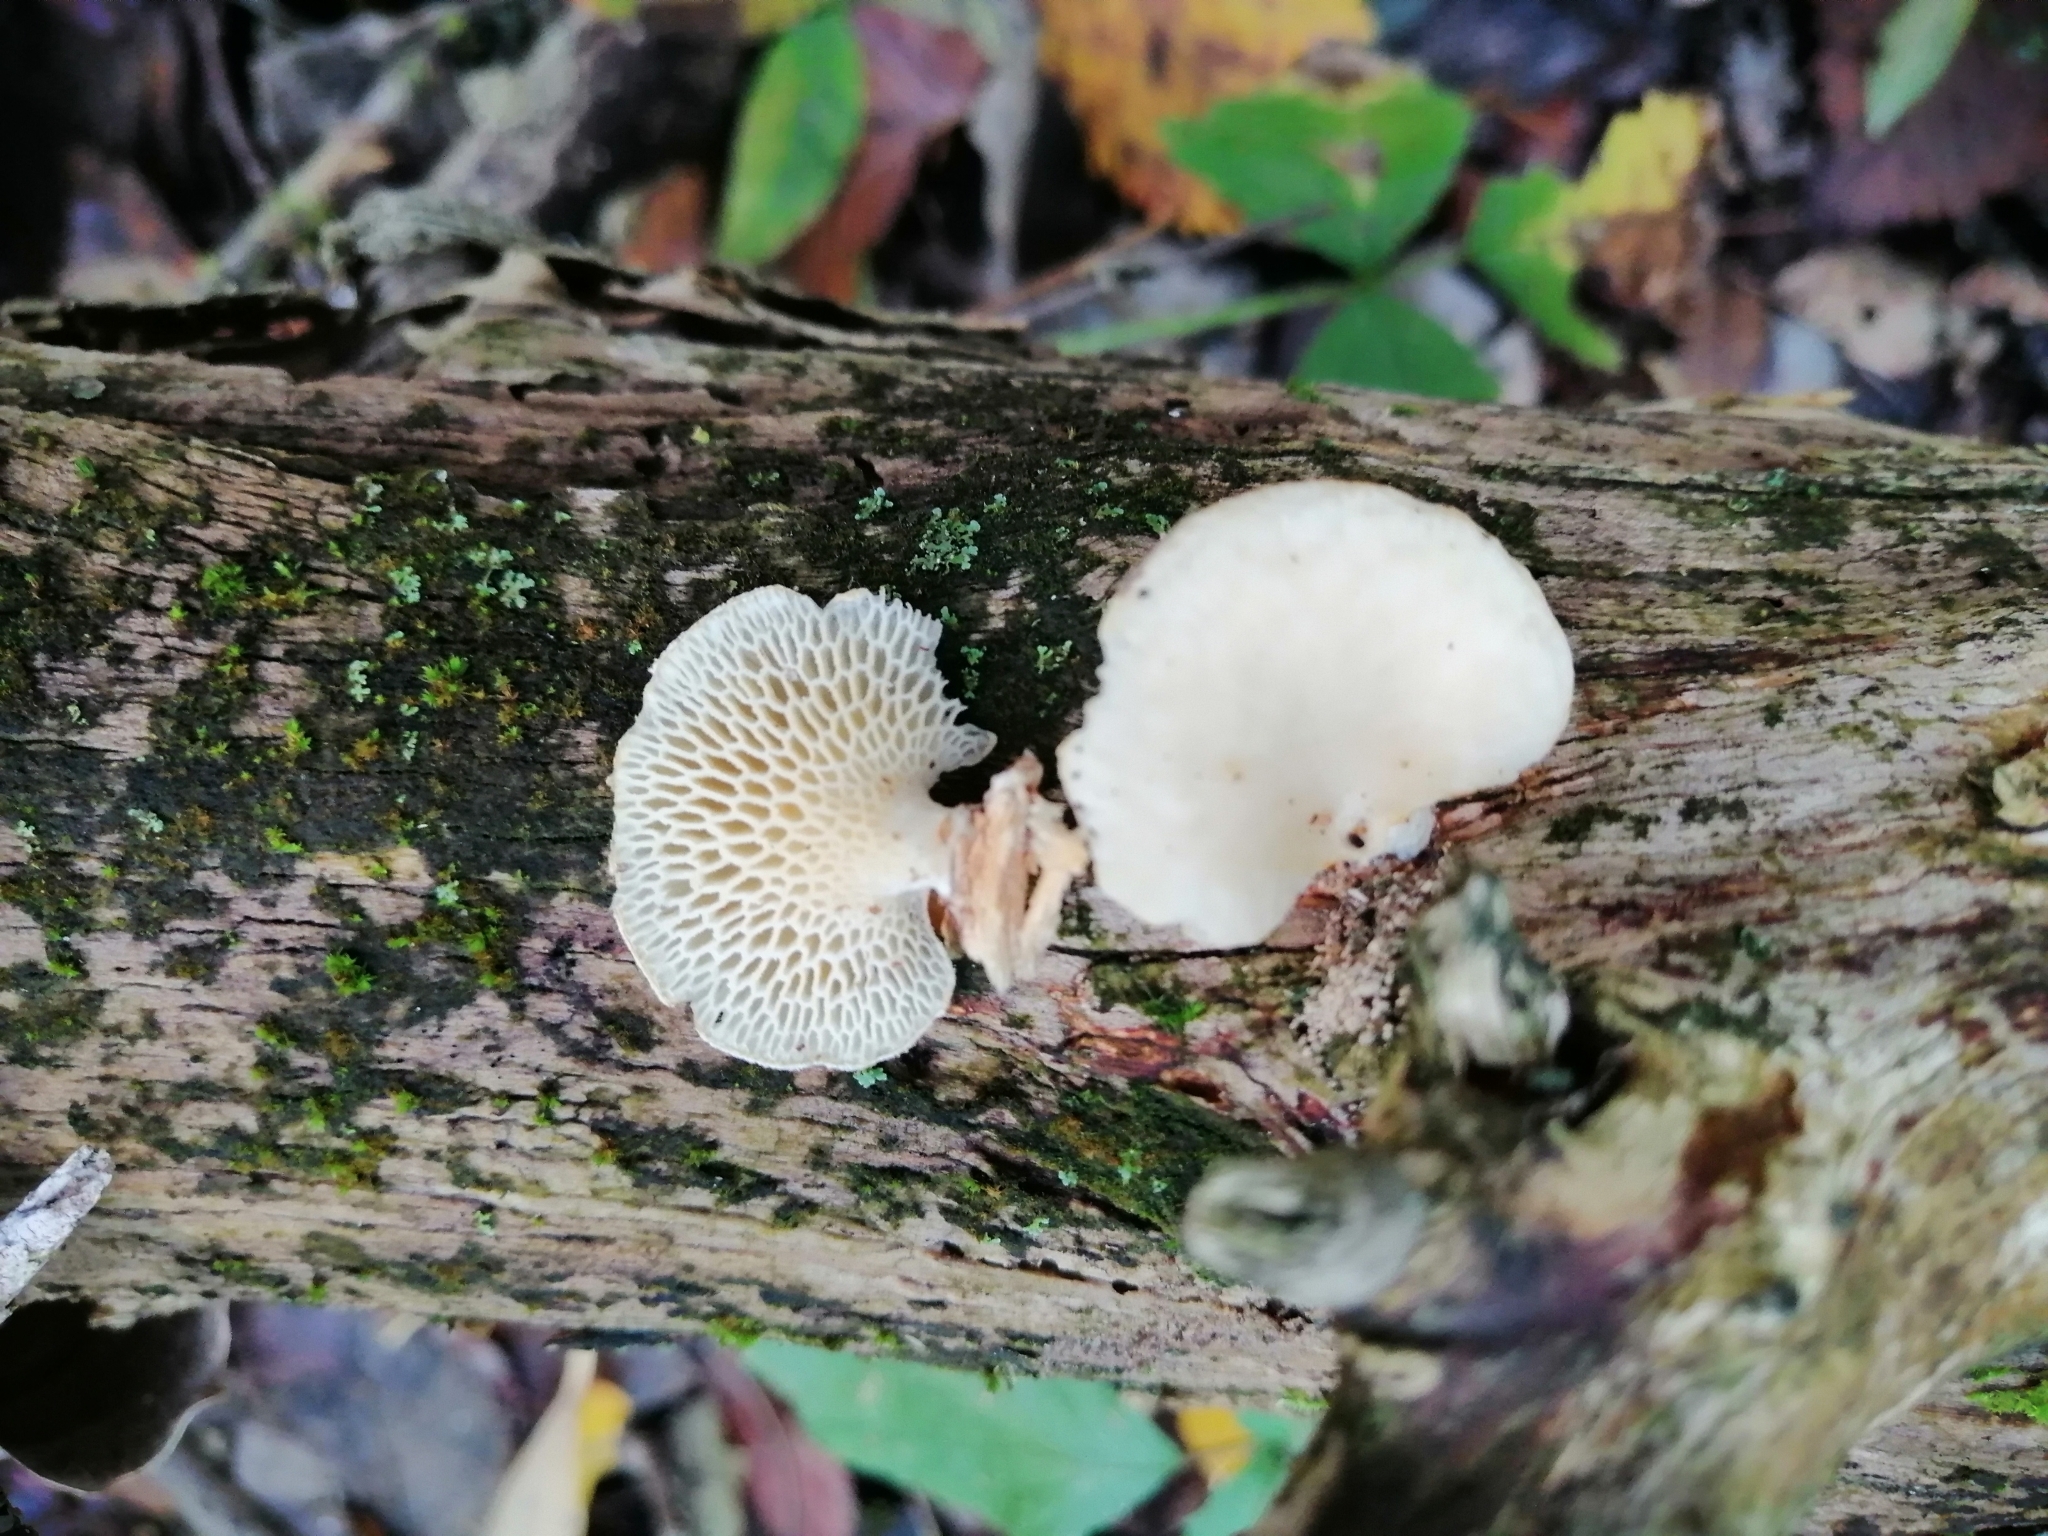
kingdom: Fungi
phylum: Basidiomycota
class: Agaricomycetes
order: Polyporales
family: Polyporaceae
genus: Neofavolus
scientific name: Neofavolus alveolaris
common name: Hexagonal-pored polypore
